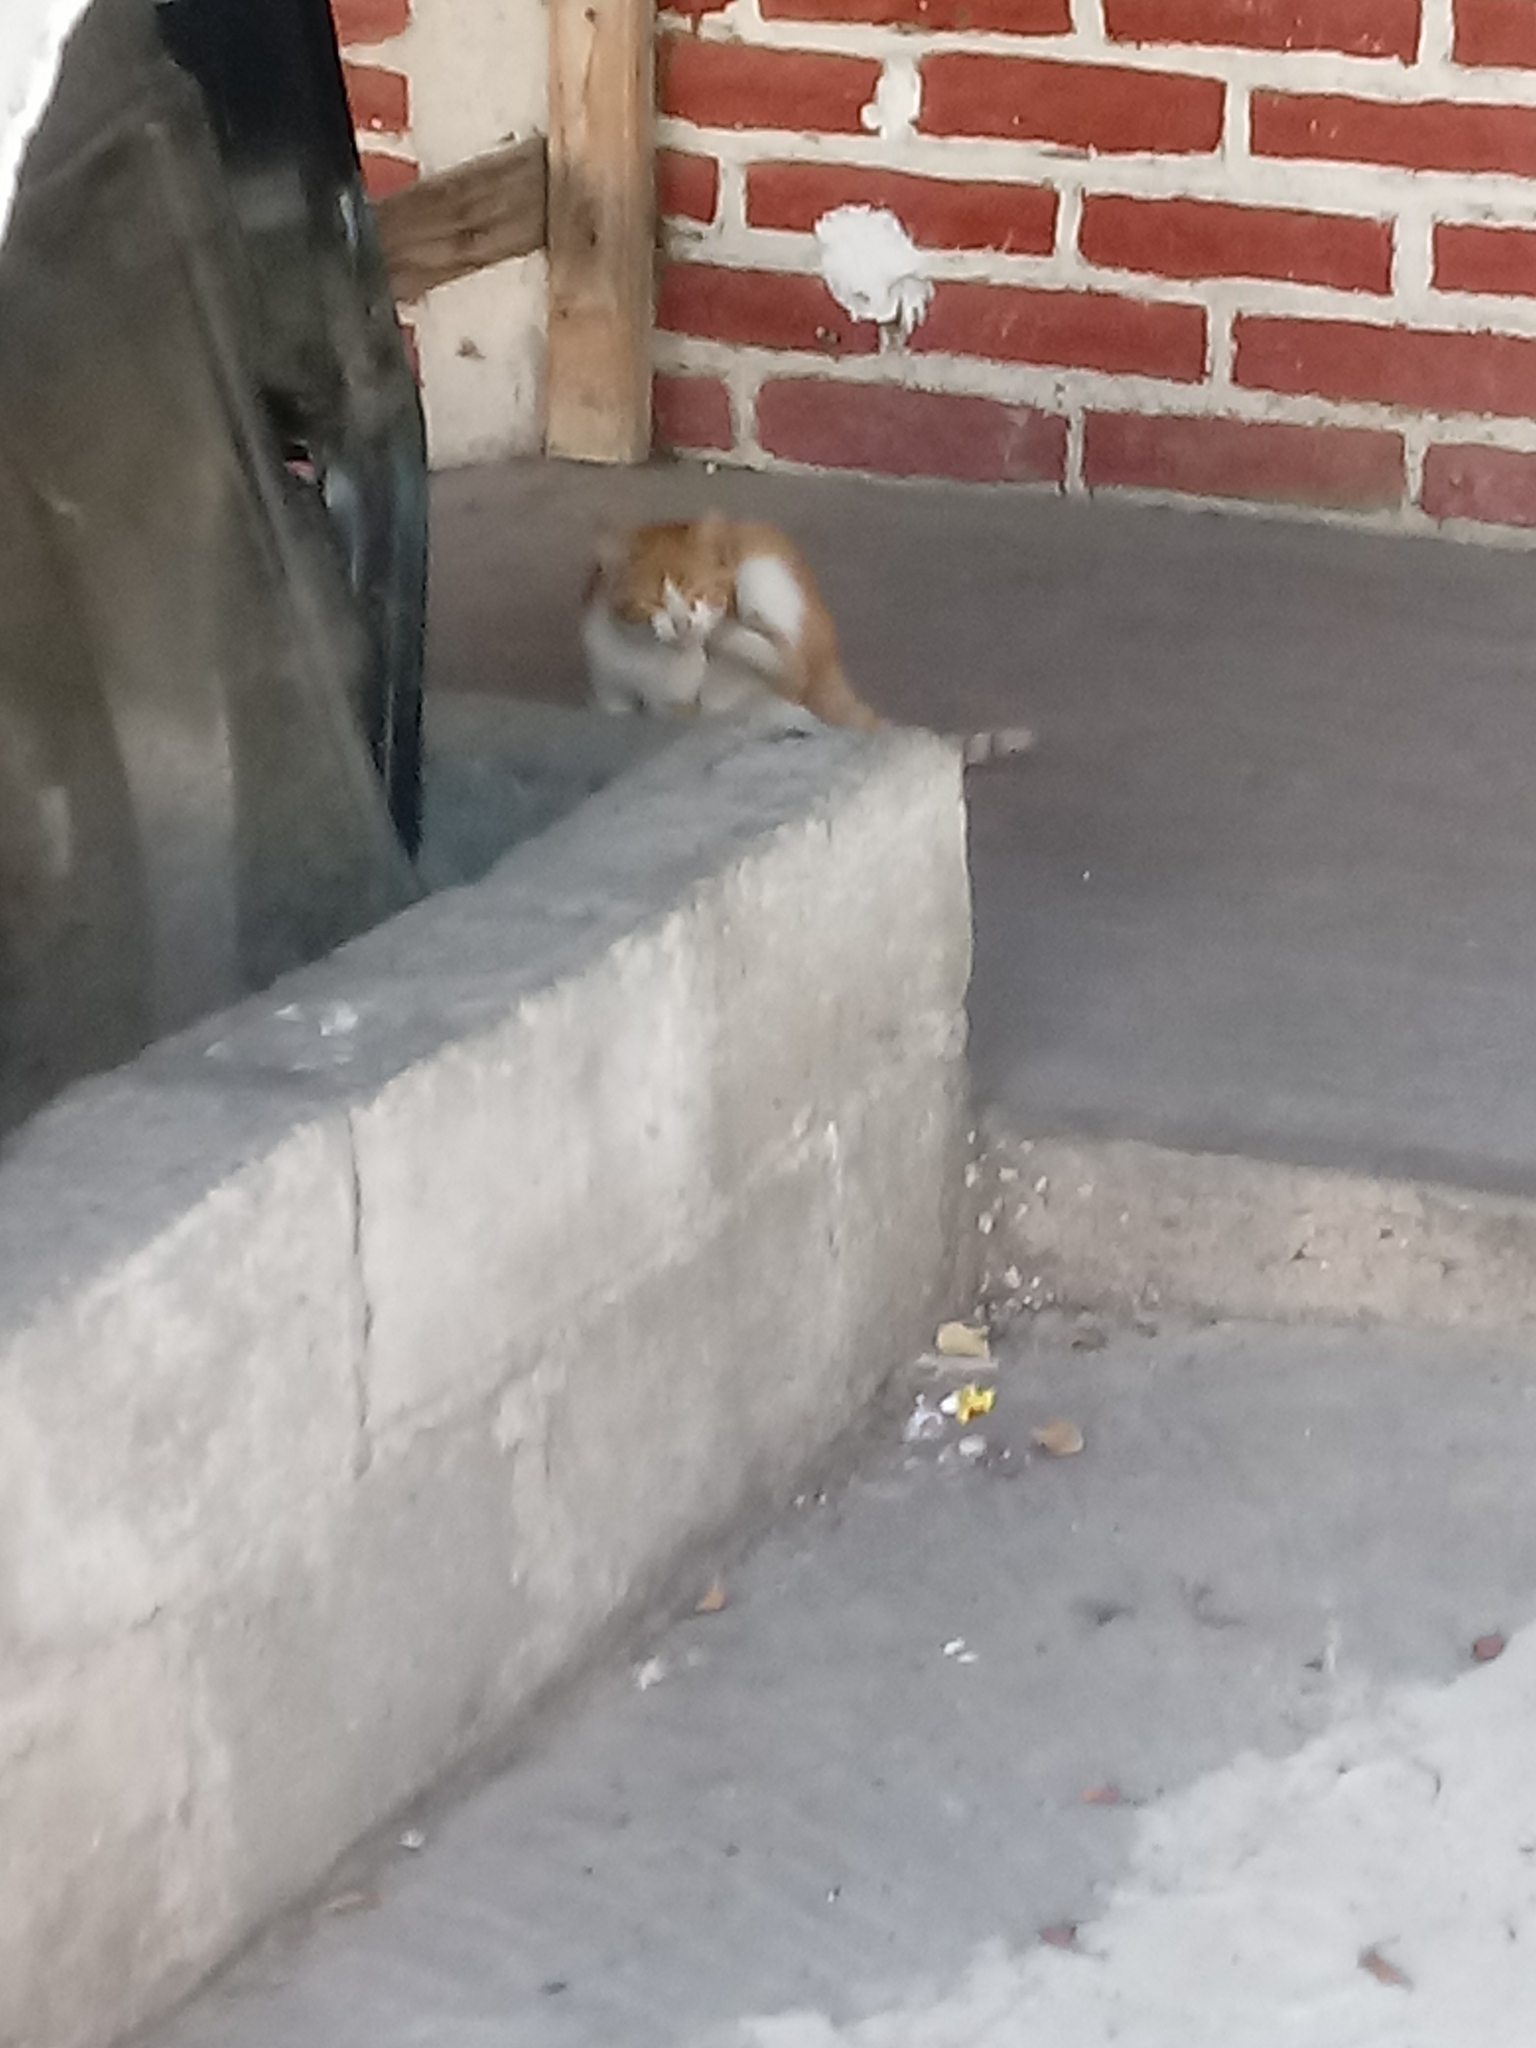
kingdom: Animalia
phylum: Chordata
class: Mammalia
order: Carnivora
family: Felidae
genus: Felis
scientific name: Felis catus
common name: Domestic cat
